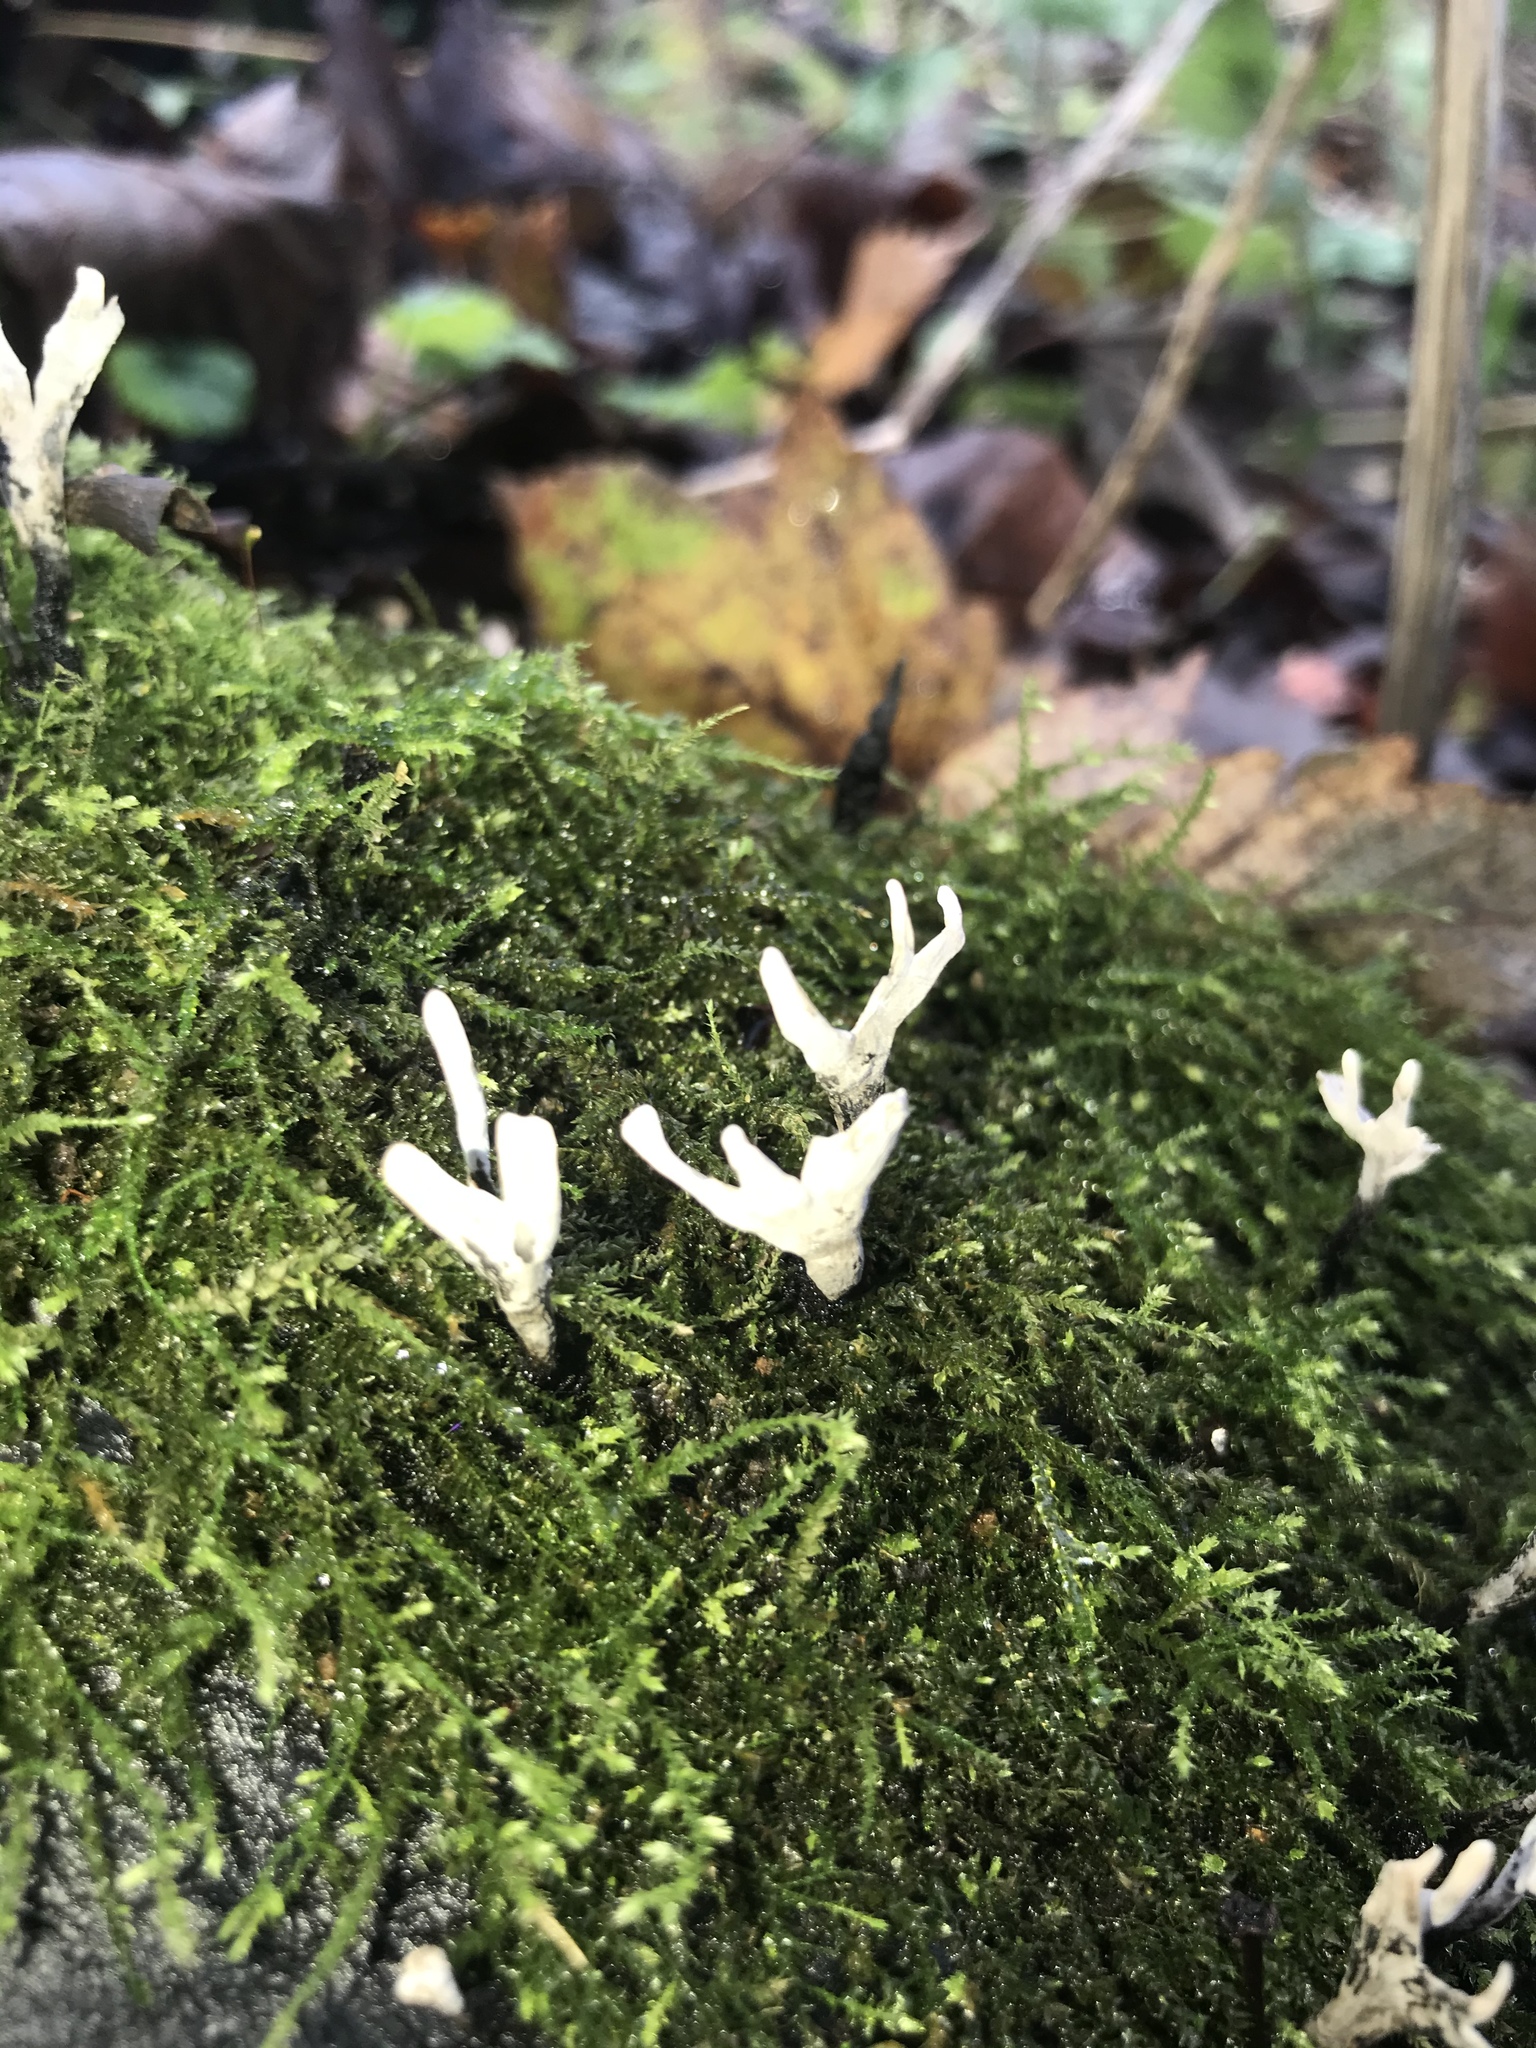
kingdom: Fungi
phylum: Ascomycota
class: Sordariomycetes
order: Xylariales
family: Xylariaceae
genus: Xylaria
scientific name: Xylaria hypoxylon
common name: Candle-snuff fungus
